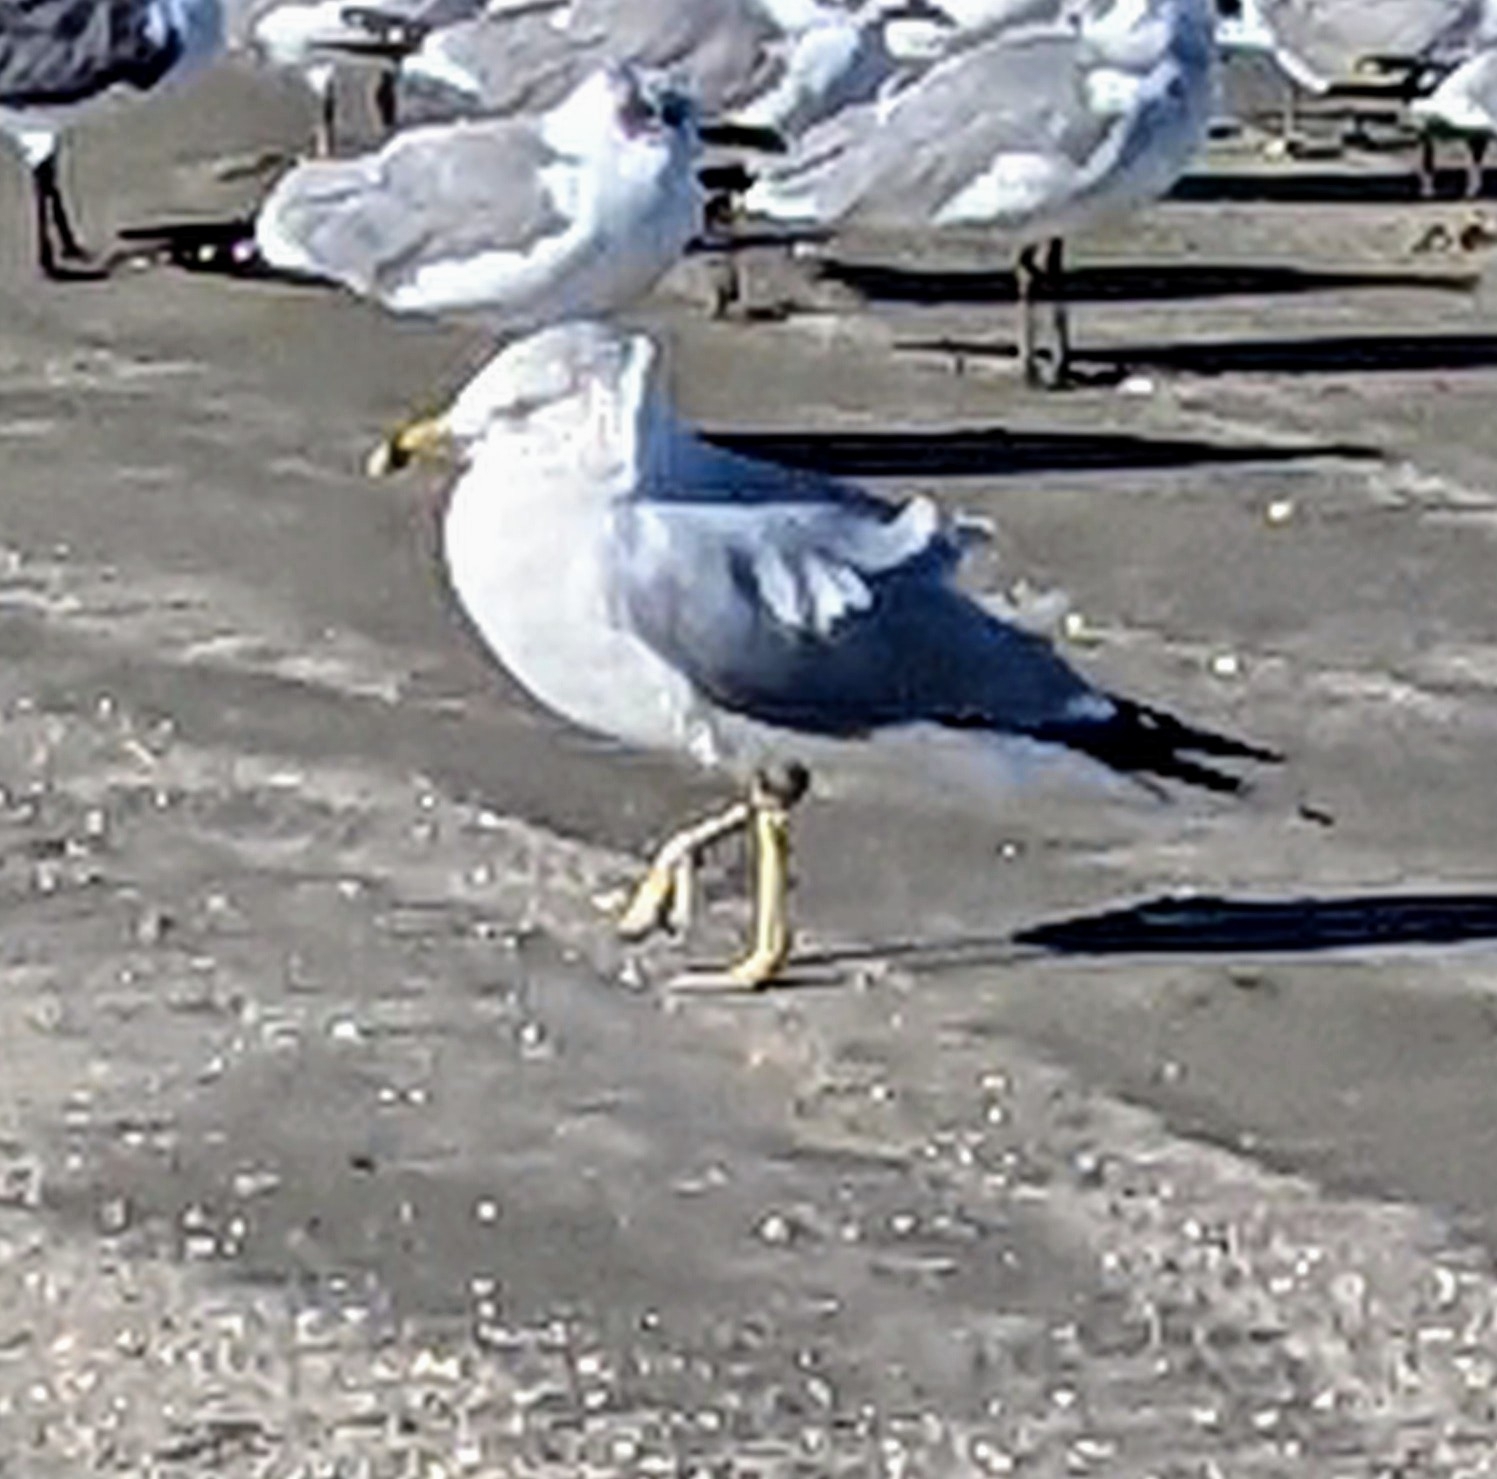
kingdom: Animalia
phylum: Chordata
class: Aves
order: Charadriiformes
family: Laridae
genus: Larus
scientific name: Larus delawarensis
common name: Ring-billed gull
